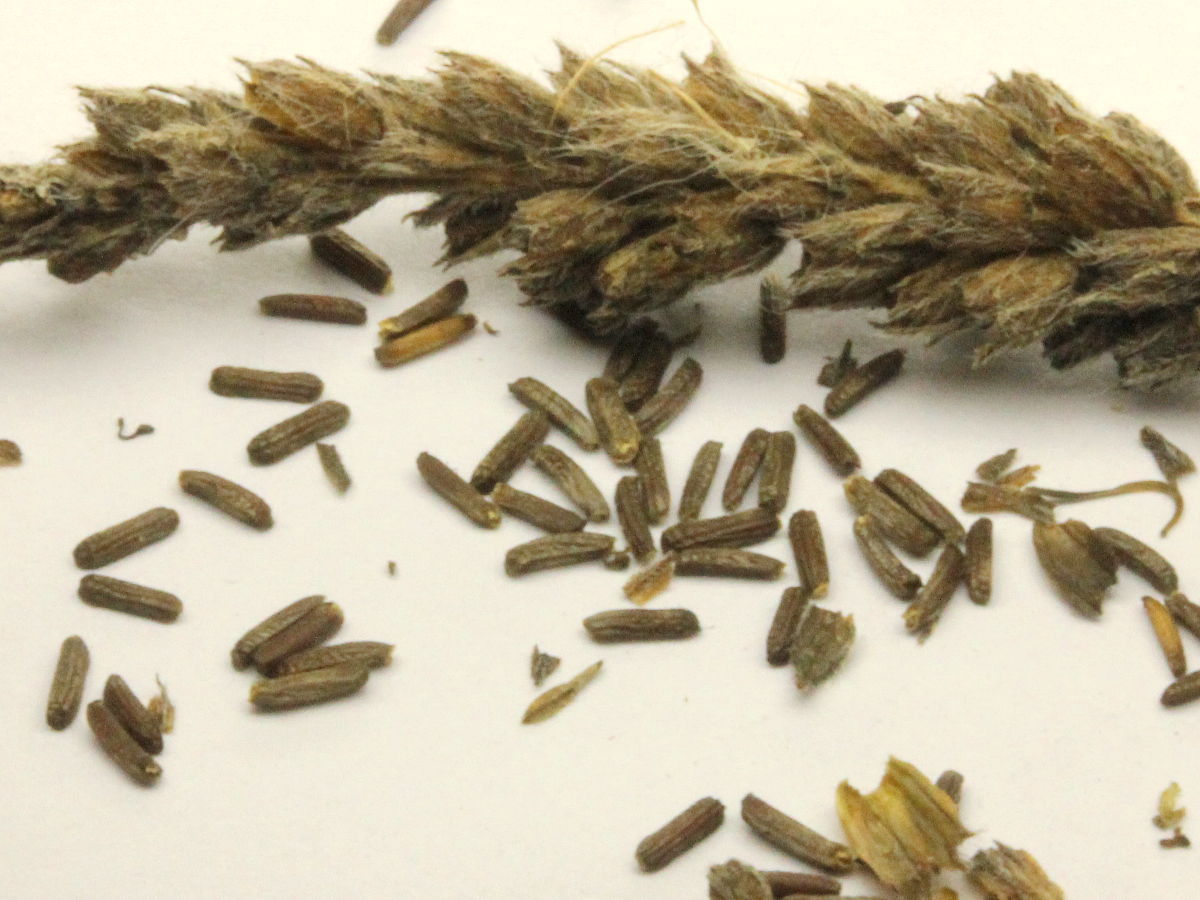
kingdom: Plantae
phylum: Tracheophyta
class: Magnoliopsida
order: Lamiales
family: Verbenaceae
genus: Verbena
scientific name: Verbena stricta
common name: Hoary vervain
